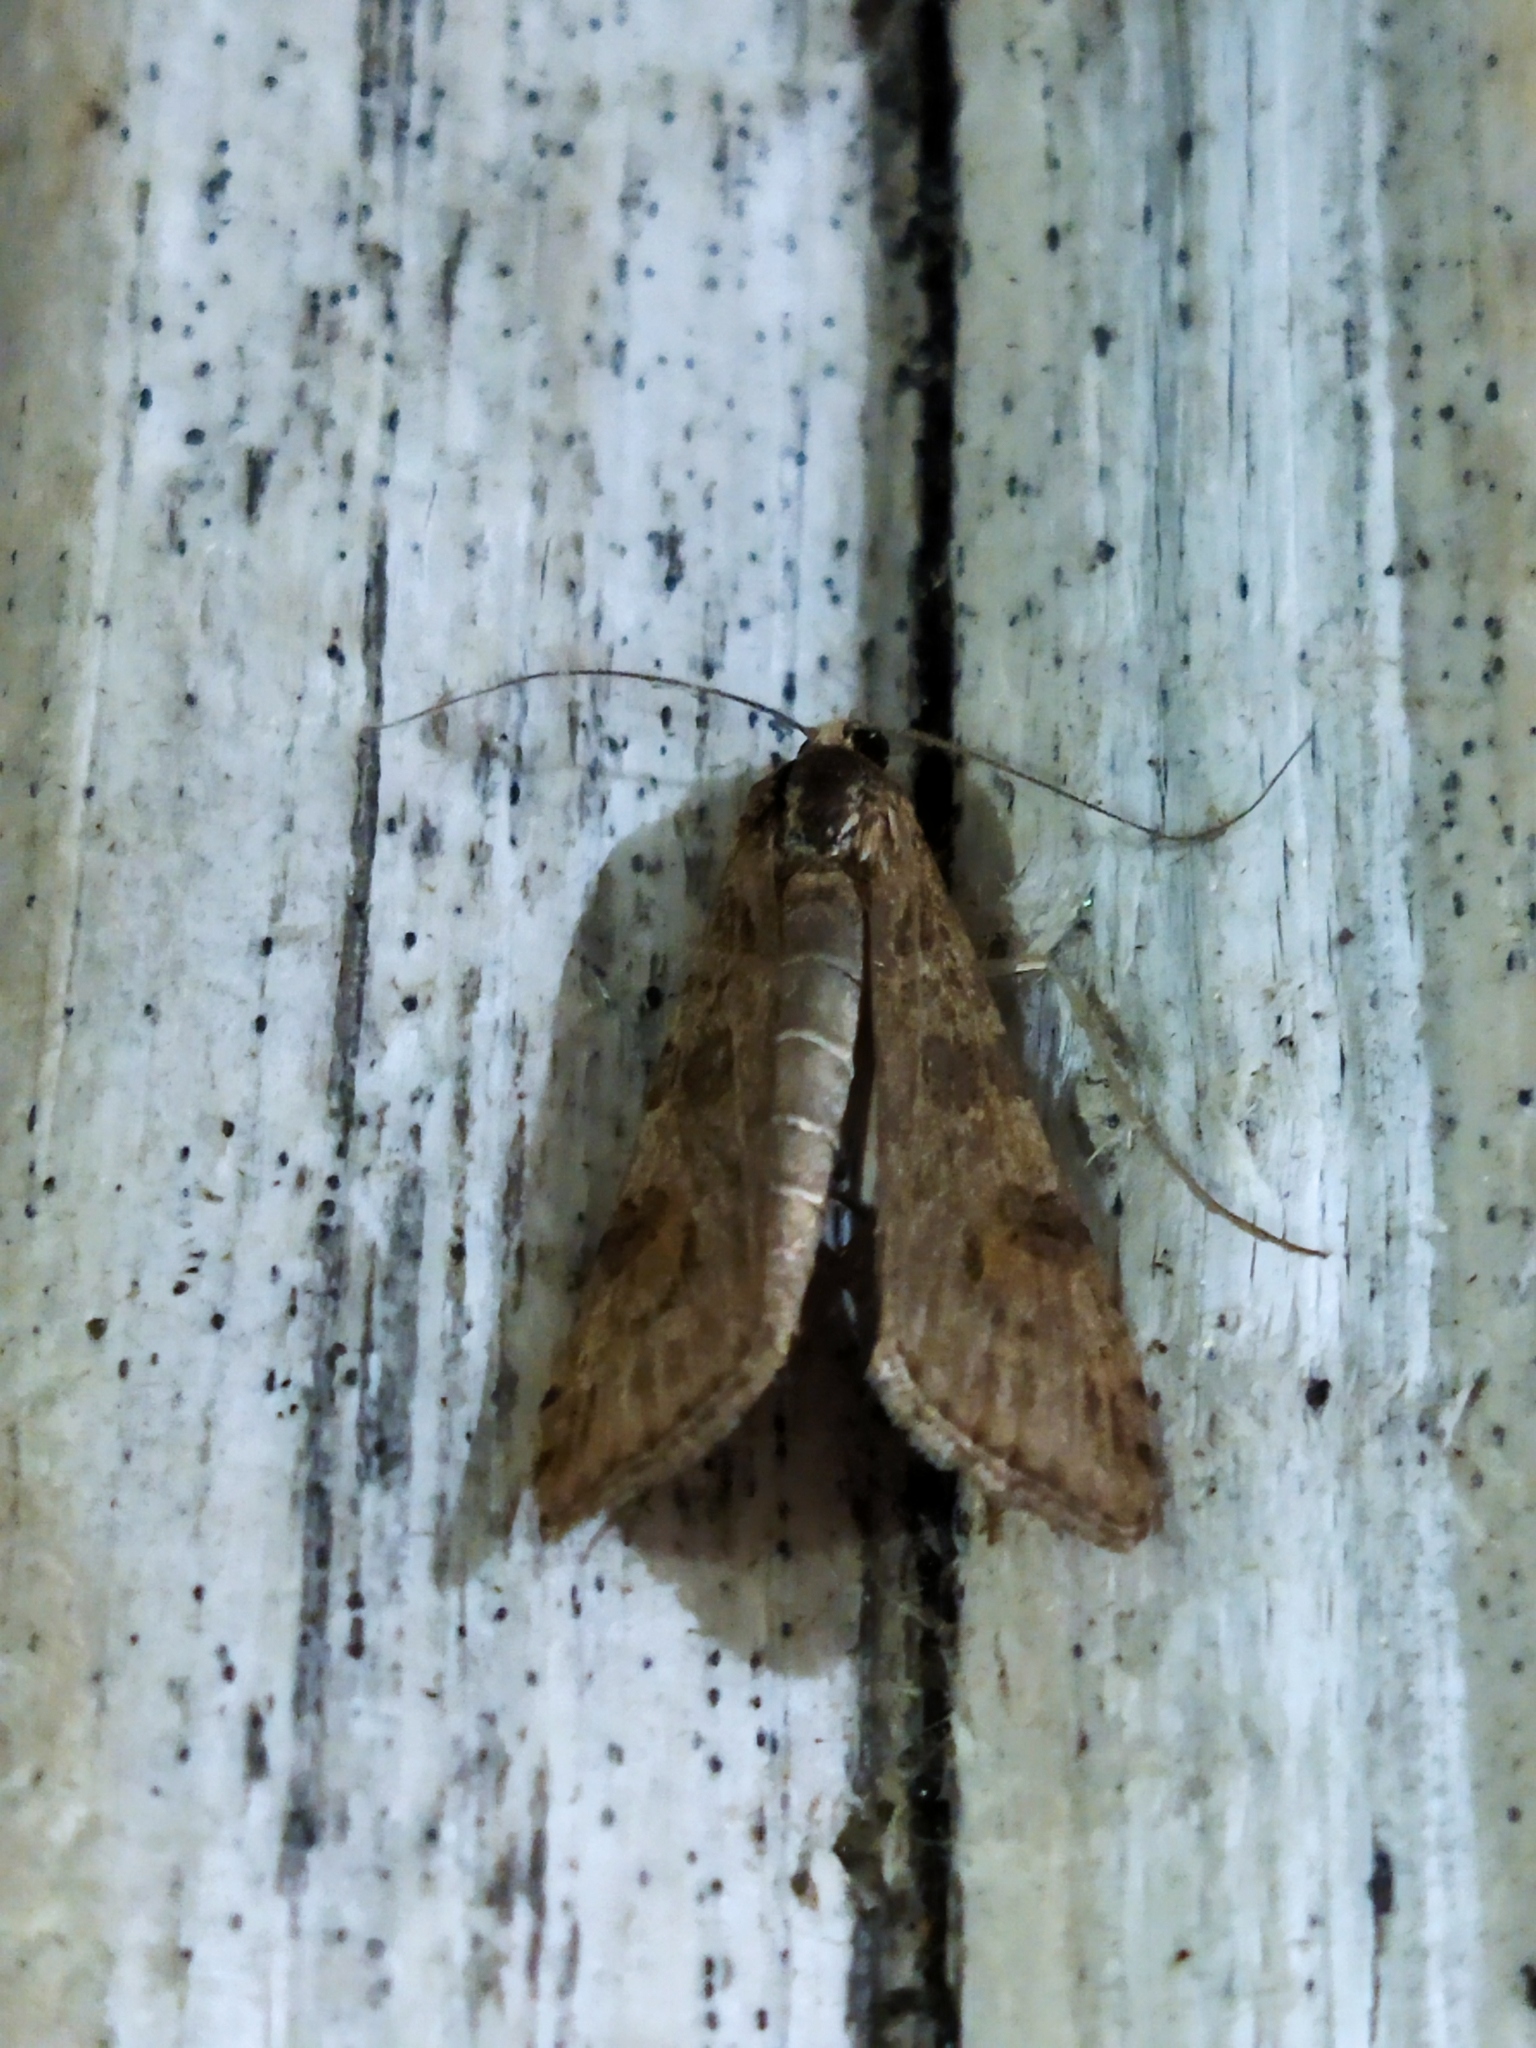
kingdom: Animalia
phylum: Arthropoda
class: Insecta
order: Lepidoptera
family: Crambidae
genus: Nomophila
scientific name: Nomophila noctuella
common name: Rush veneer
